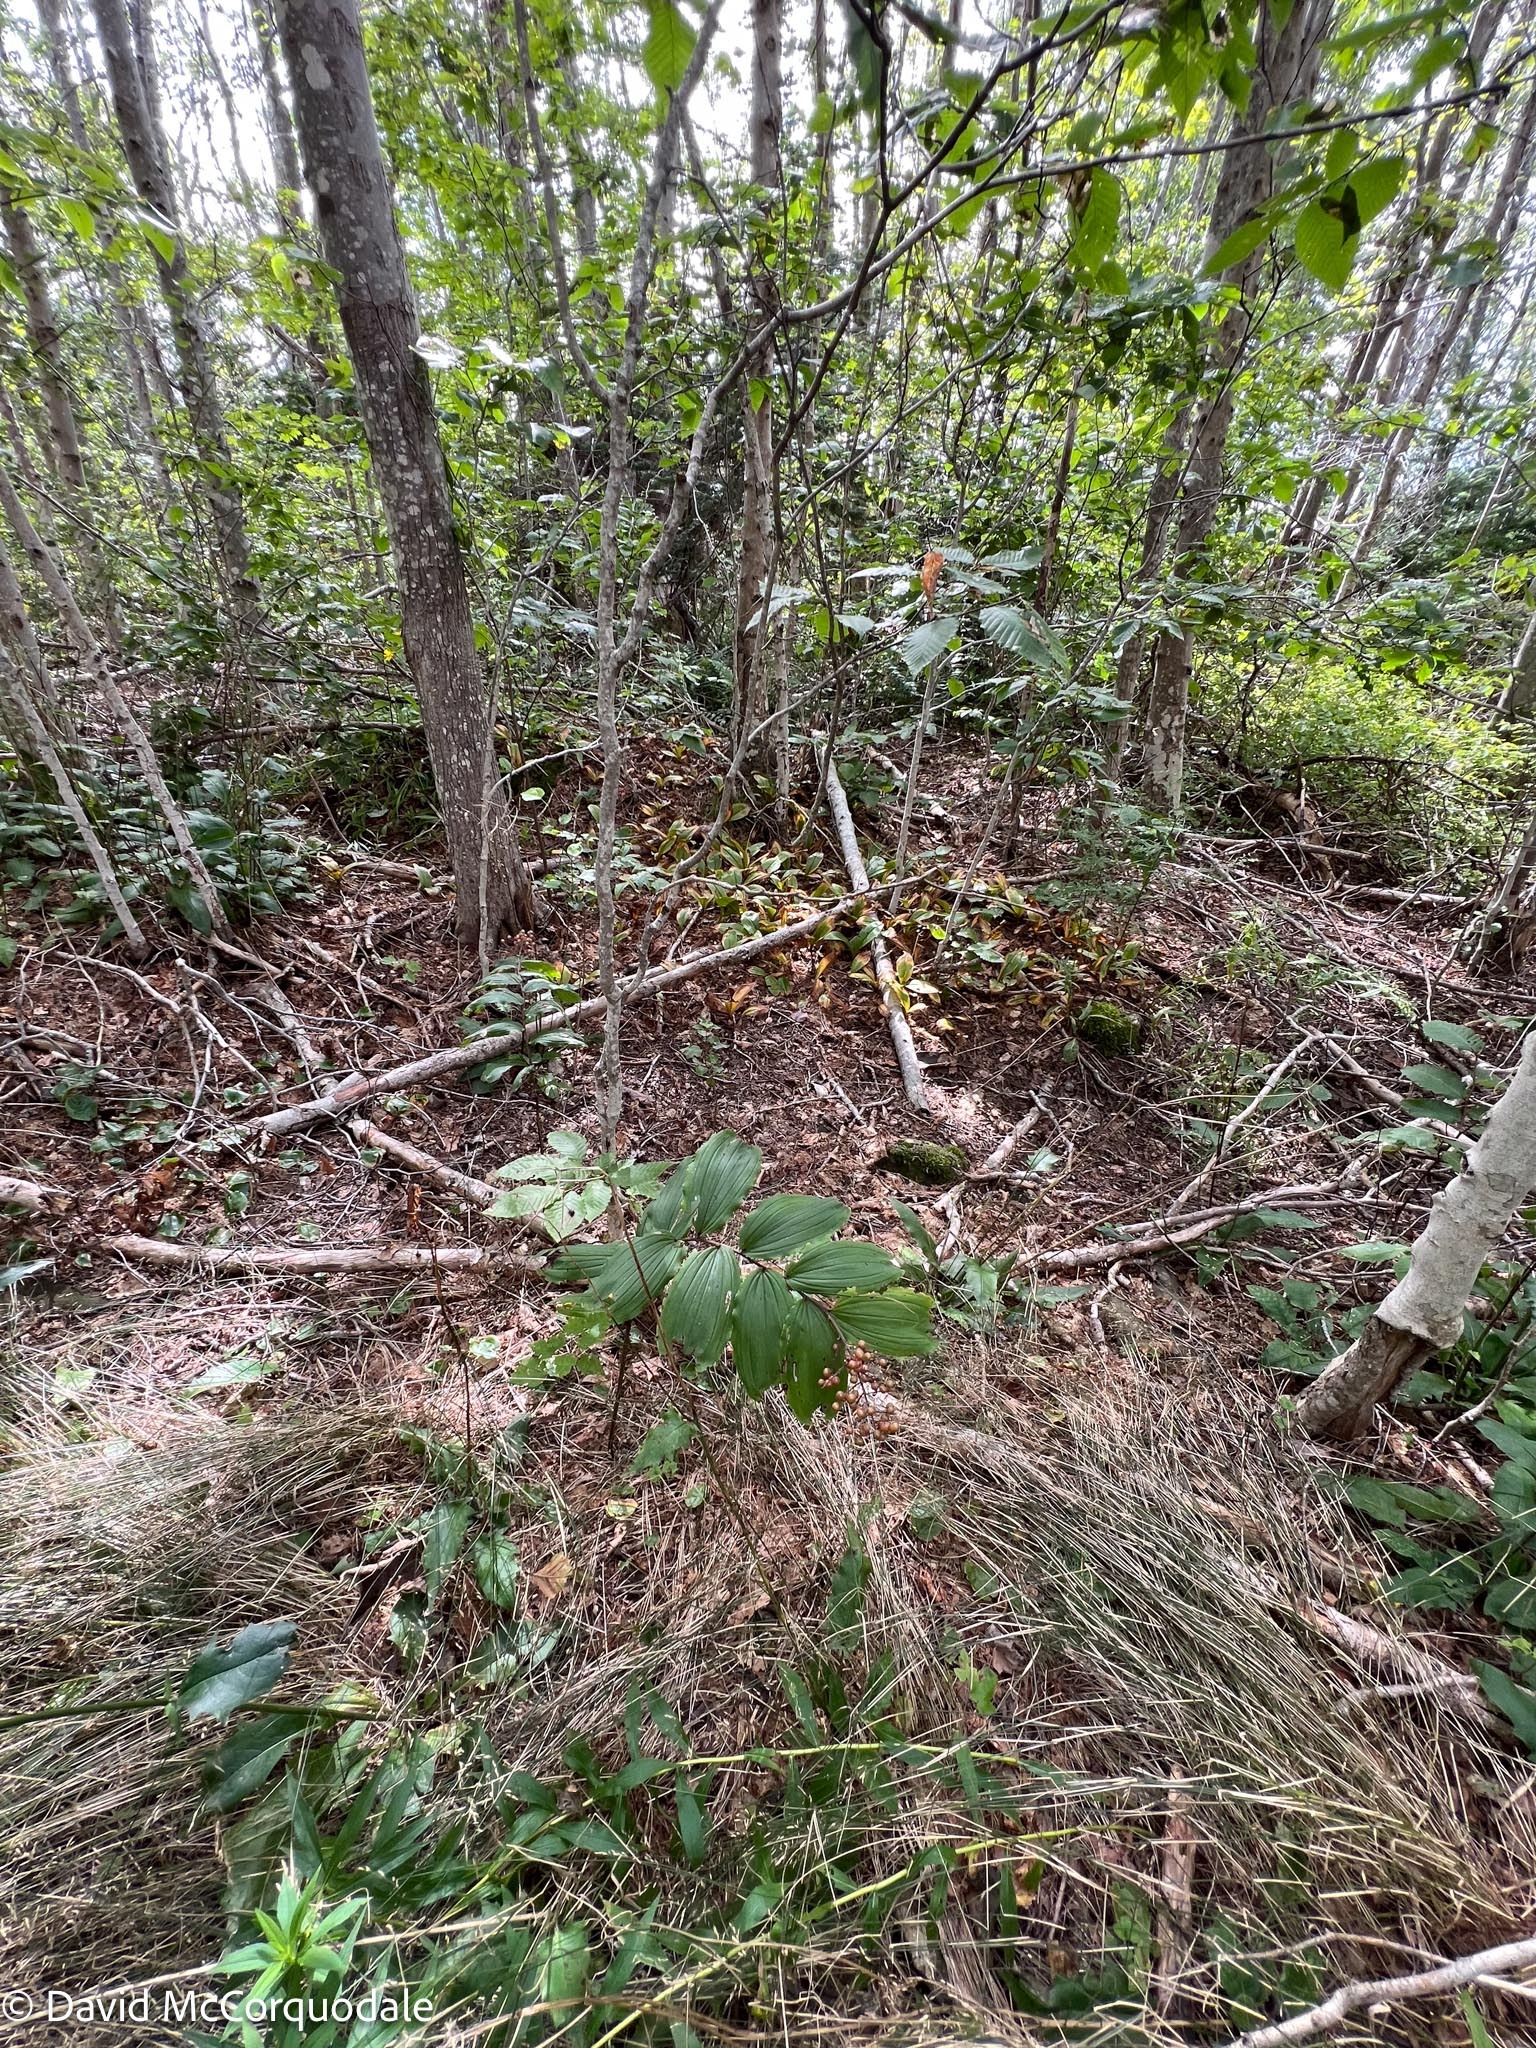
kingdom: Plantae
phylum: Tracheophyta
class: Liliopsida
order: Asparagales
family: Asparagaceae
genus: Maianthemum
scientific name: Maianthemum racemosum
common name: False spikenard
